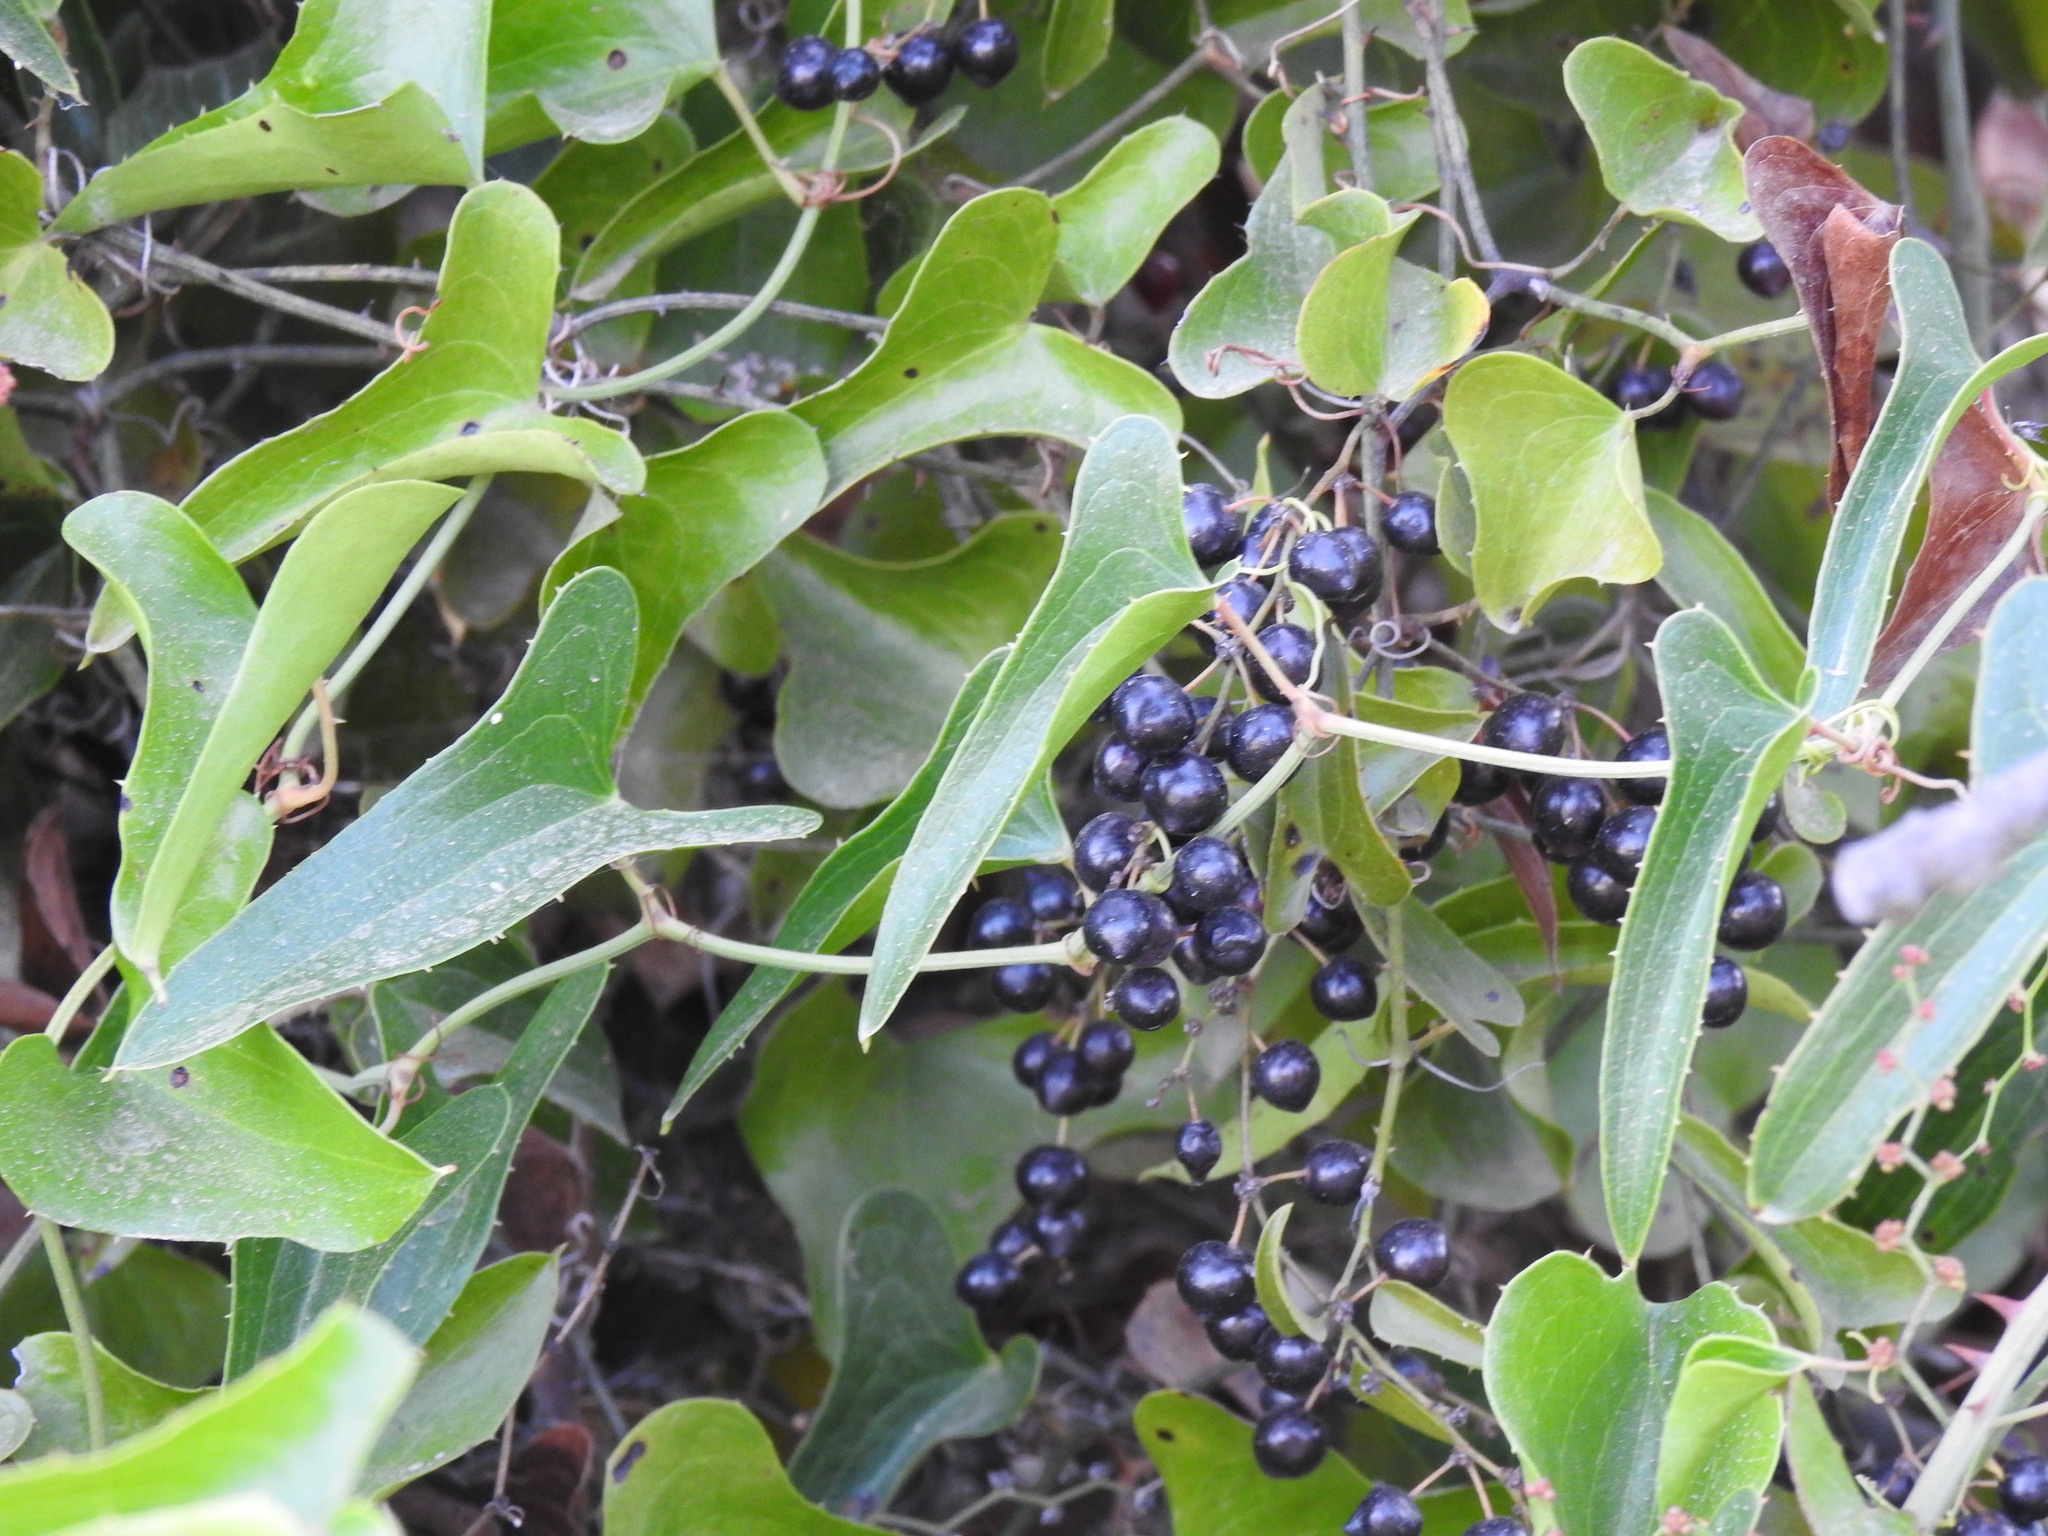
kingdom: Plantae
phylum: Tracheophyta
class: Liliopsida
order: Liliales
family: Smilacaceae
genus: Smilax
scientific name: Smilax aspera
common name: Common smilax
